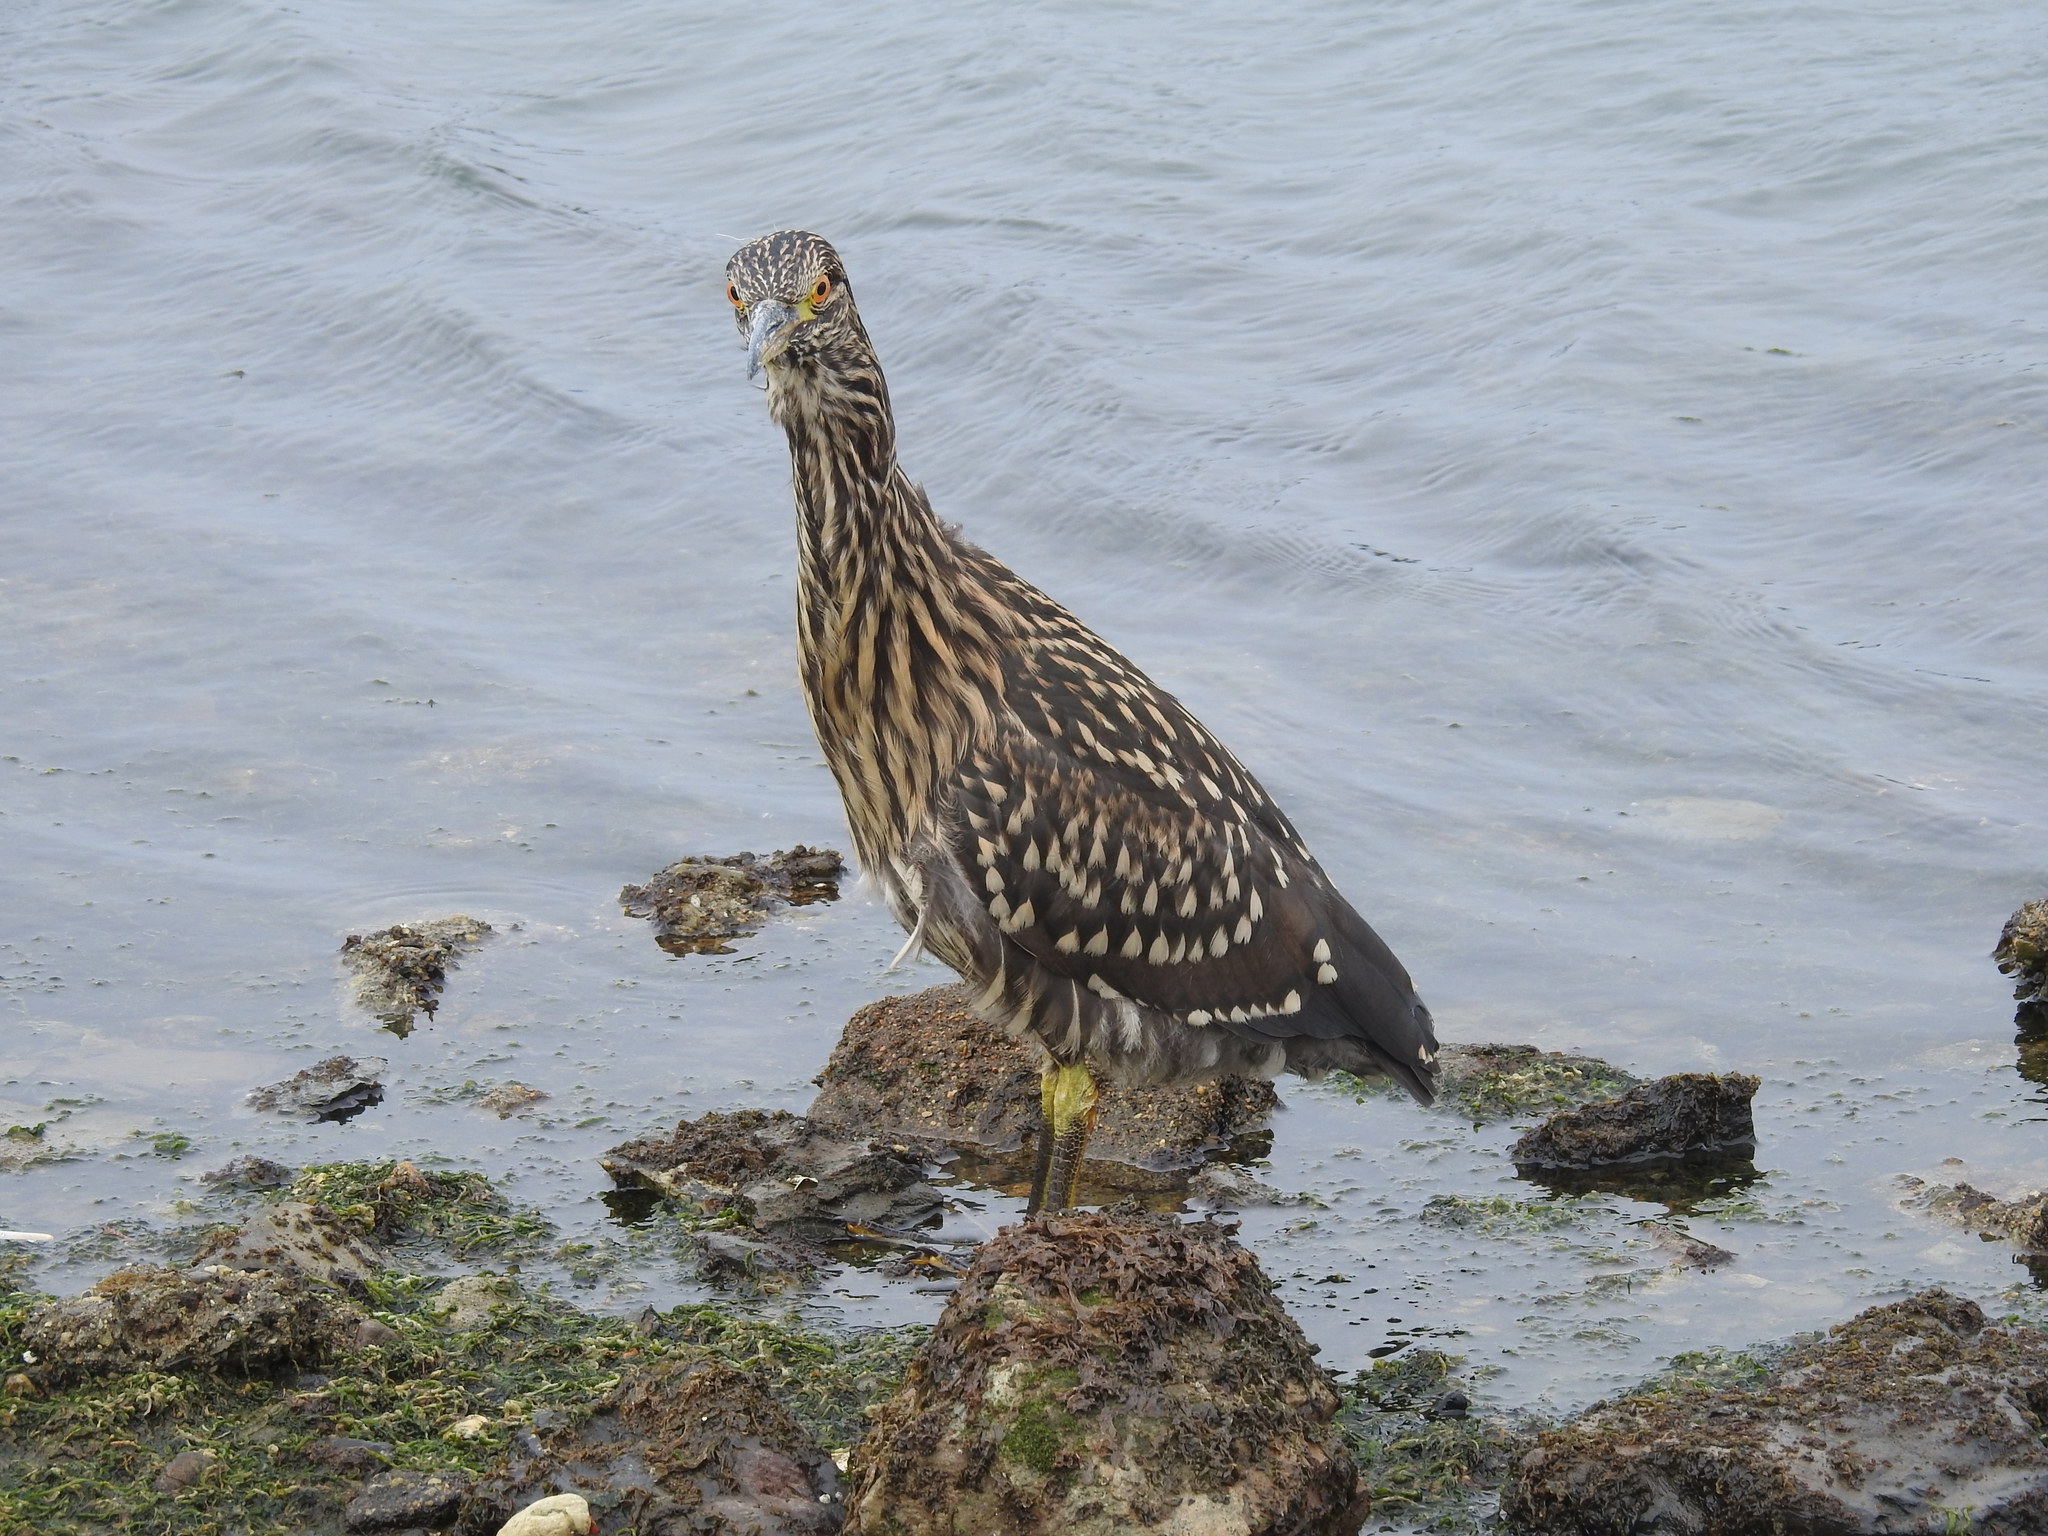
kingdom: Animalia
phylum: Chordata
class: Aves
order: Pelecaniformes
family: Ardeidae
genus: Nycticorax
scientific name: Nycticorax nycticorax
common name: Black-crowned night heron
